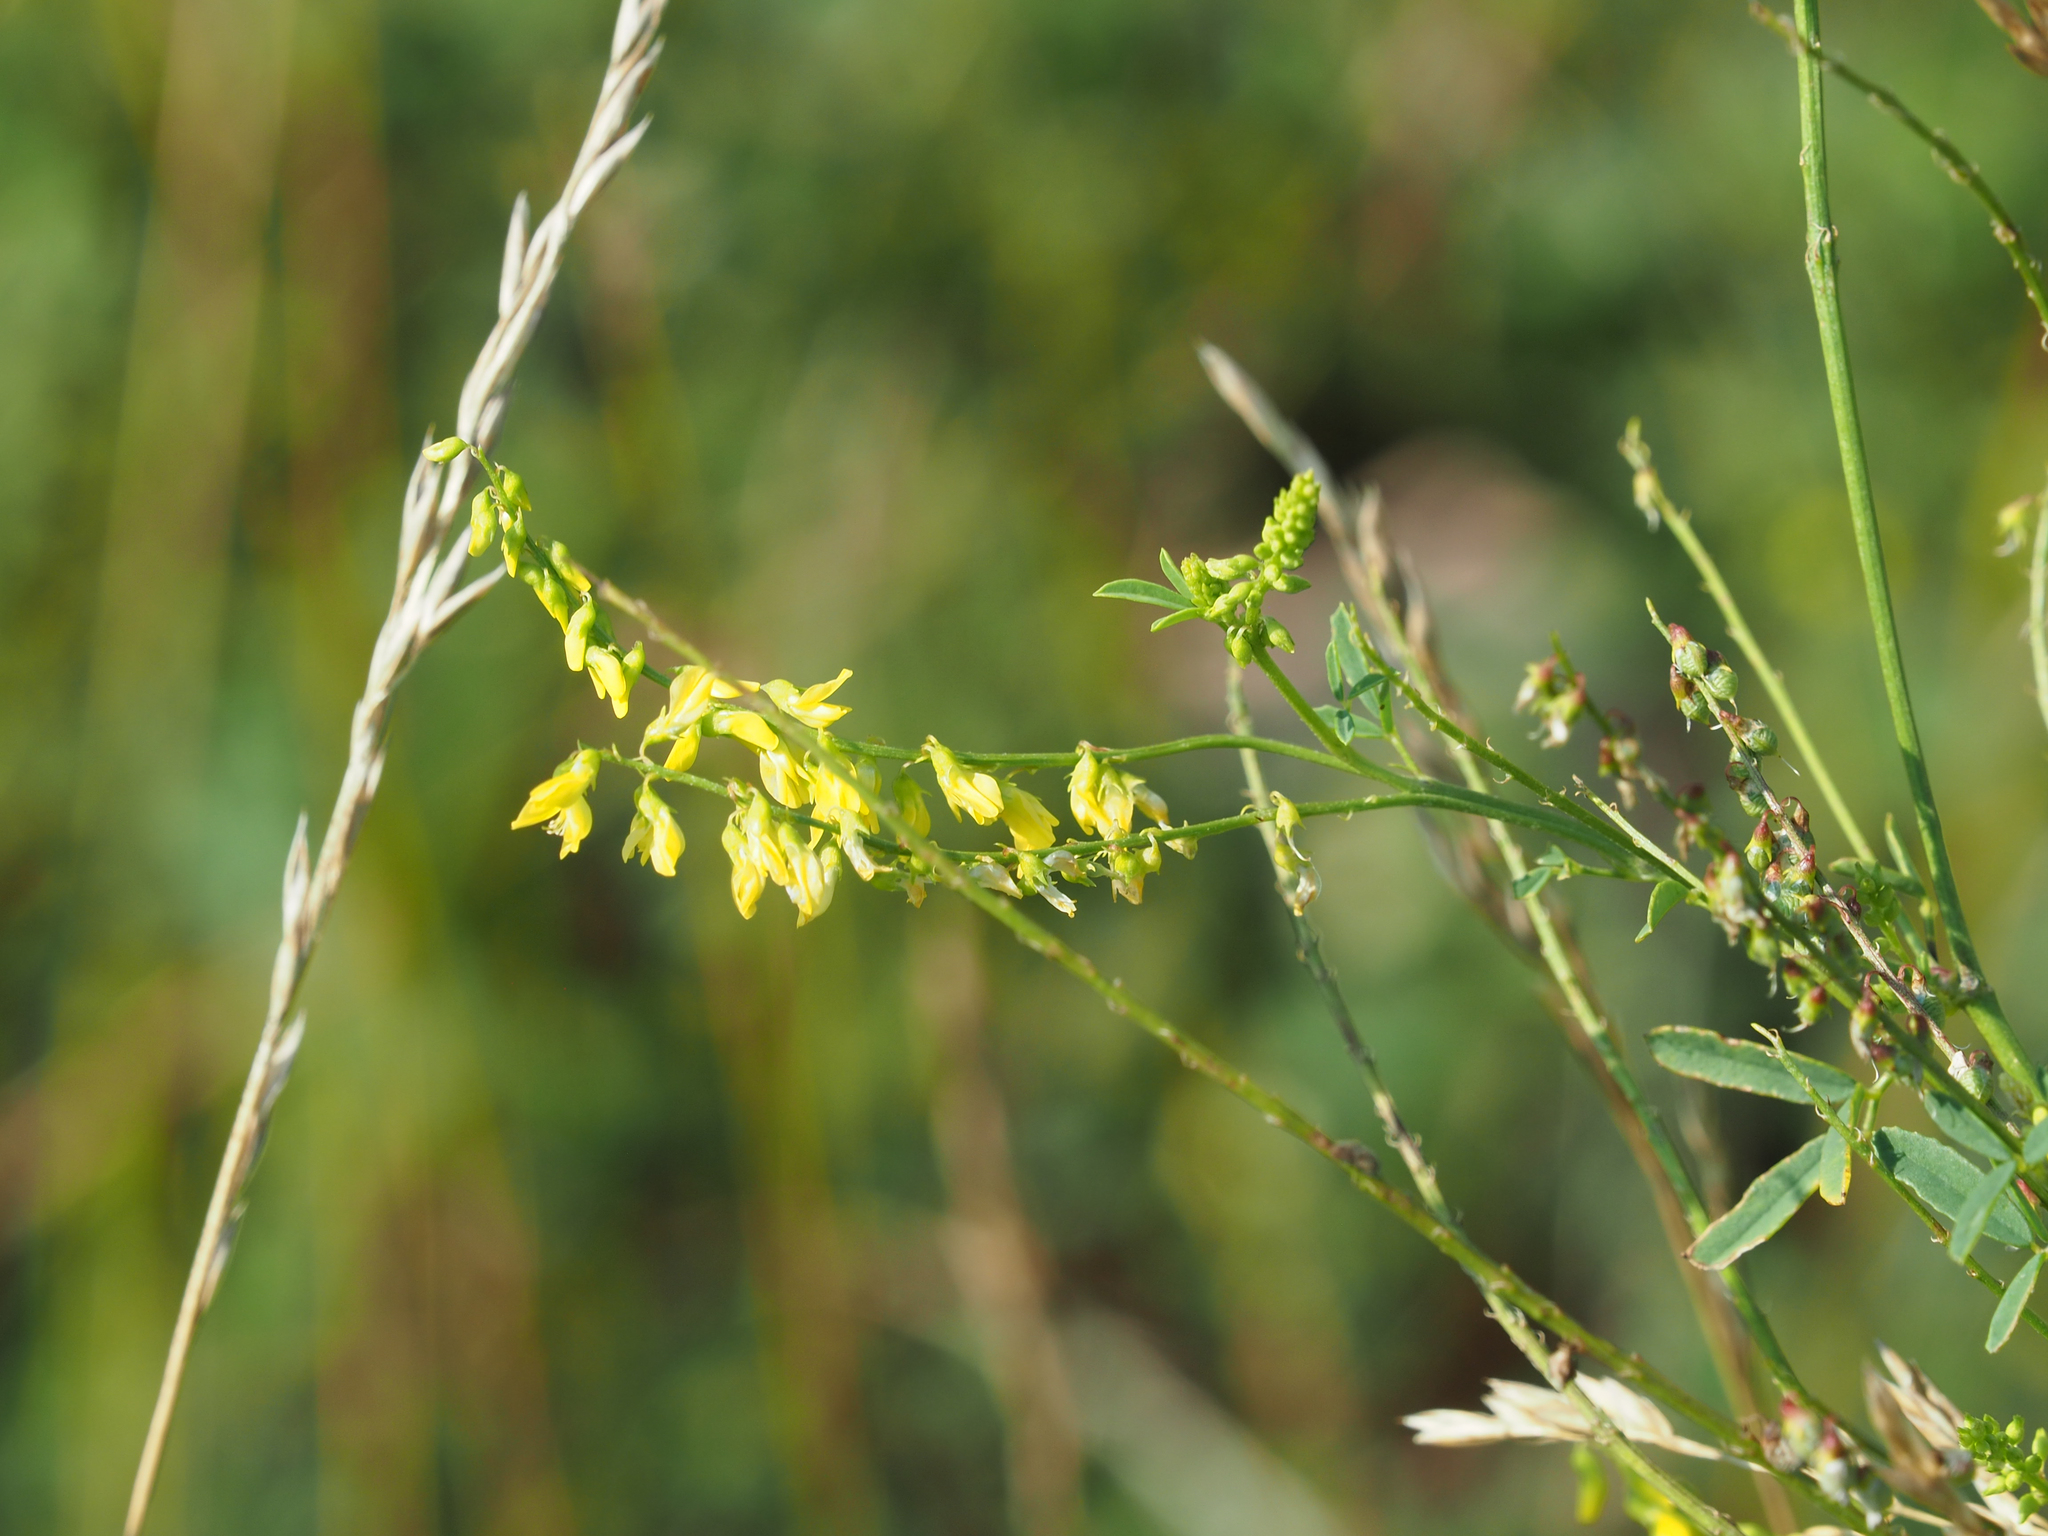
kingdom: Plantae
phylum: Tracheophyta
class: Magnoliopsida
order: Fabales
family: Fabaceae
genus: Melilotus
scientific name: Melilotus officinalis
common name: Sweetclover
